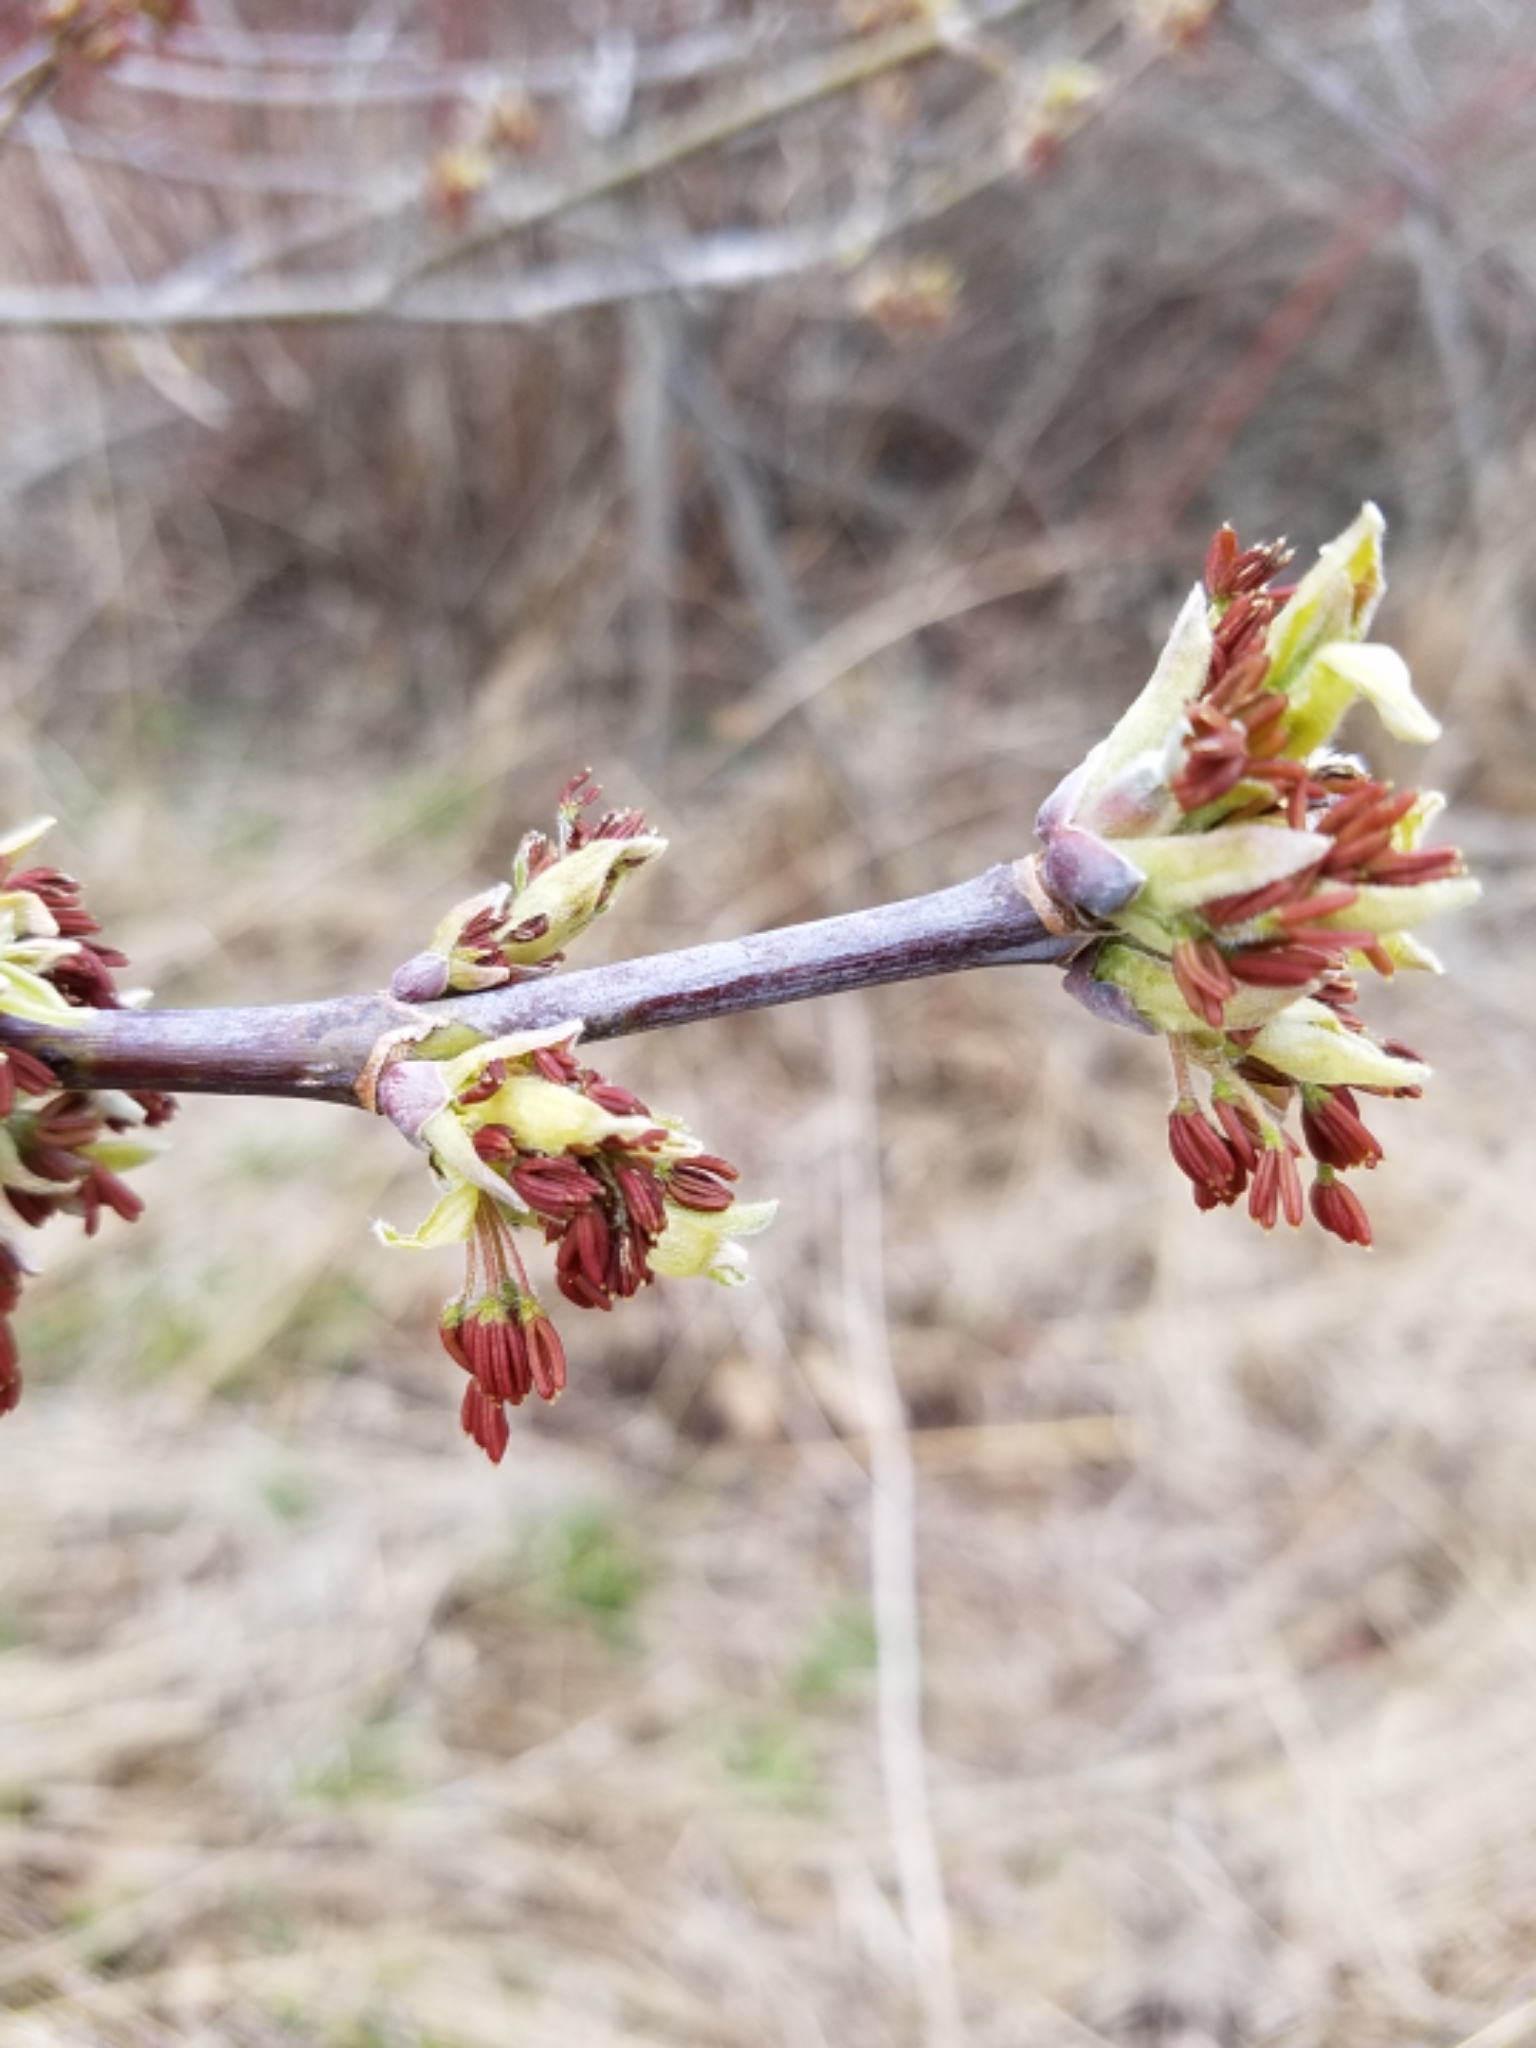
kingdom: Plantae
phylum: Tracheophyta
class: Magnoliopsida
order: Sapindales
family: Sapindaceae
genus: Acer
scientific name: Acer negundo
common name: Ashleaf maple
